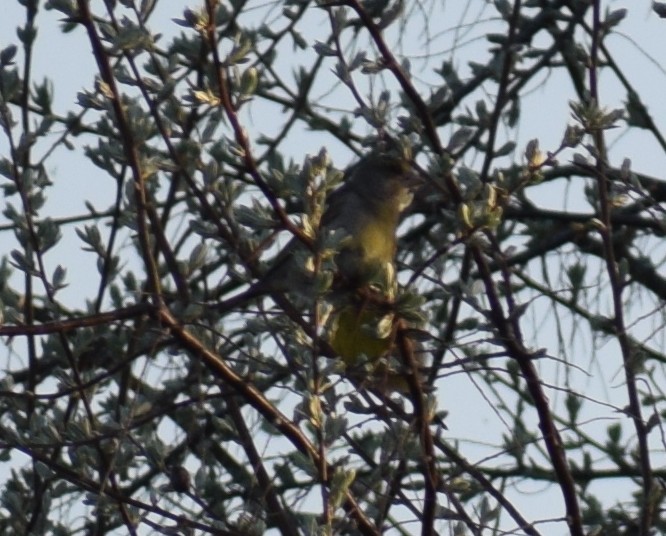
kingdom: Plantae
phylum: Tracheophyta
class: Liliopsida
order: Poales
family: Poaceae
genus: Chloris
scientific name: Chloris chloris
